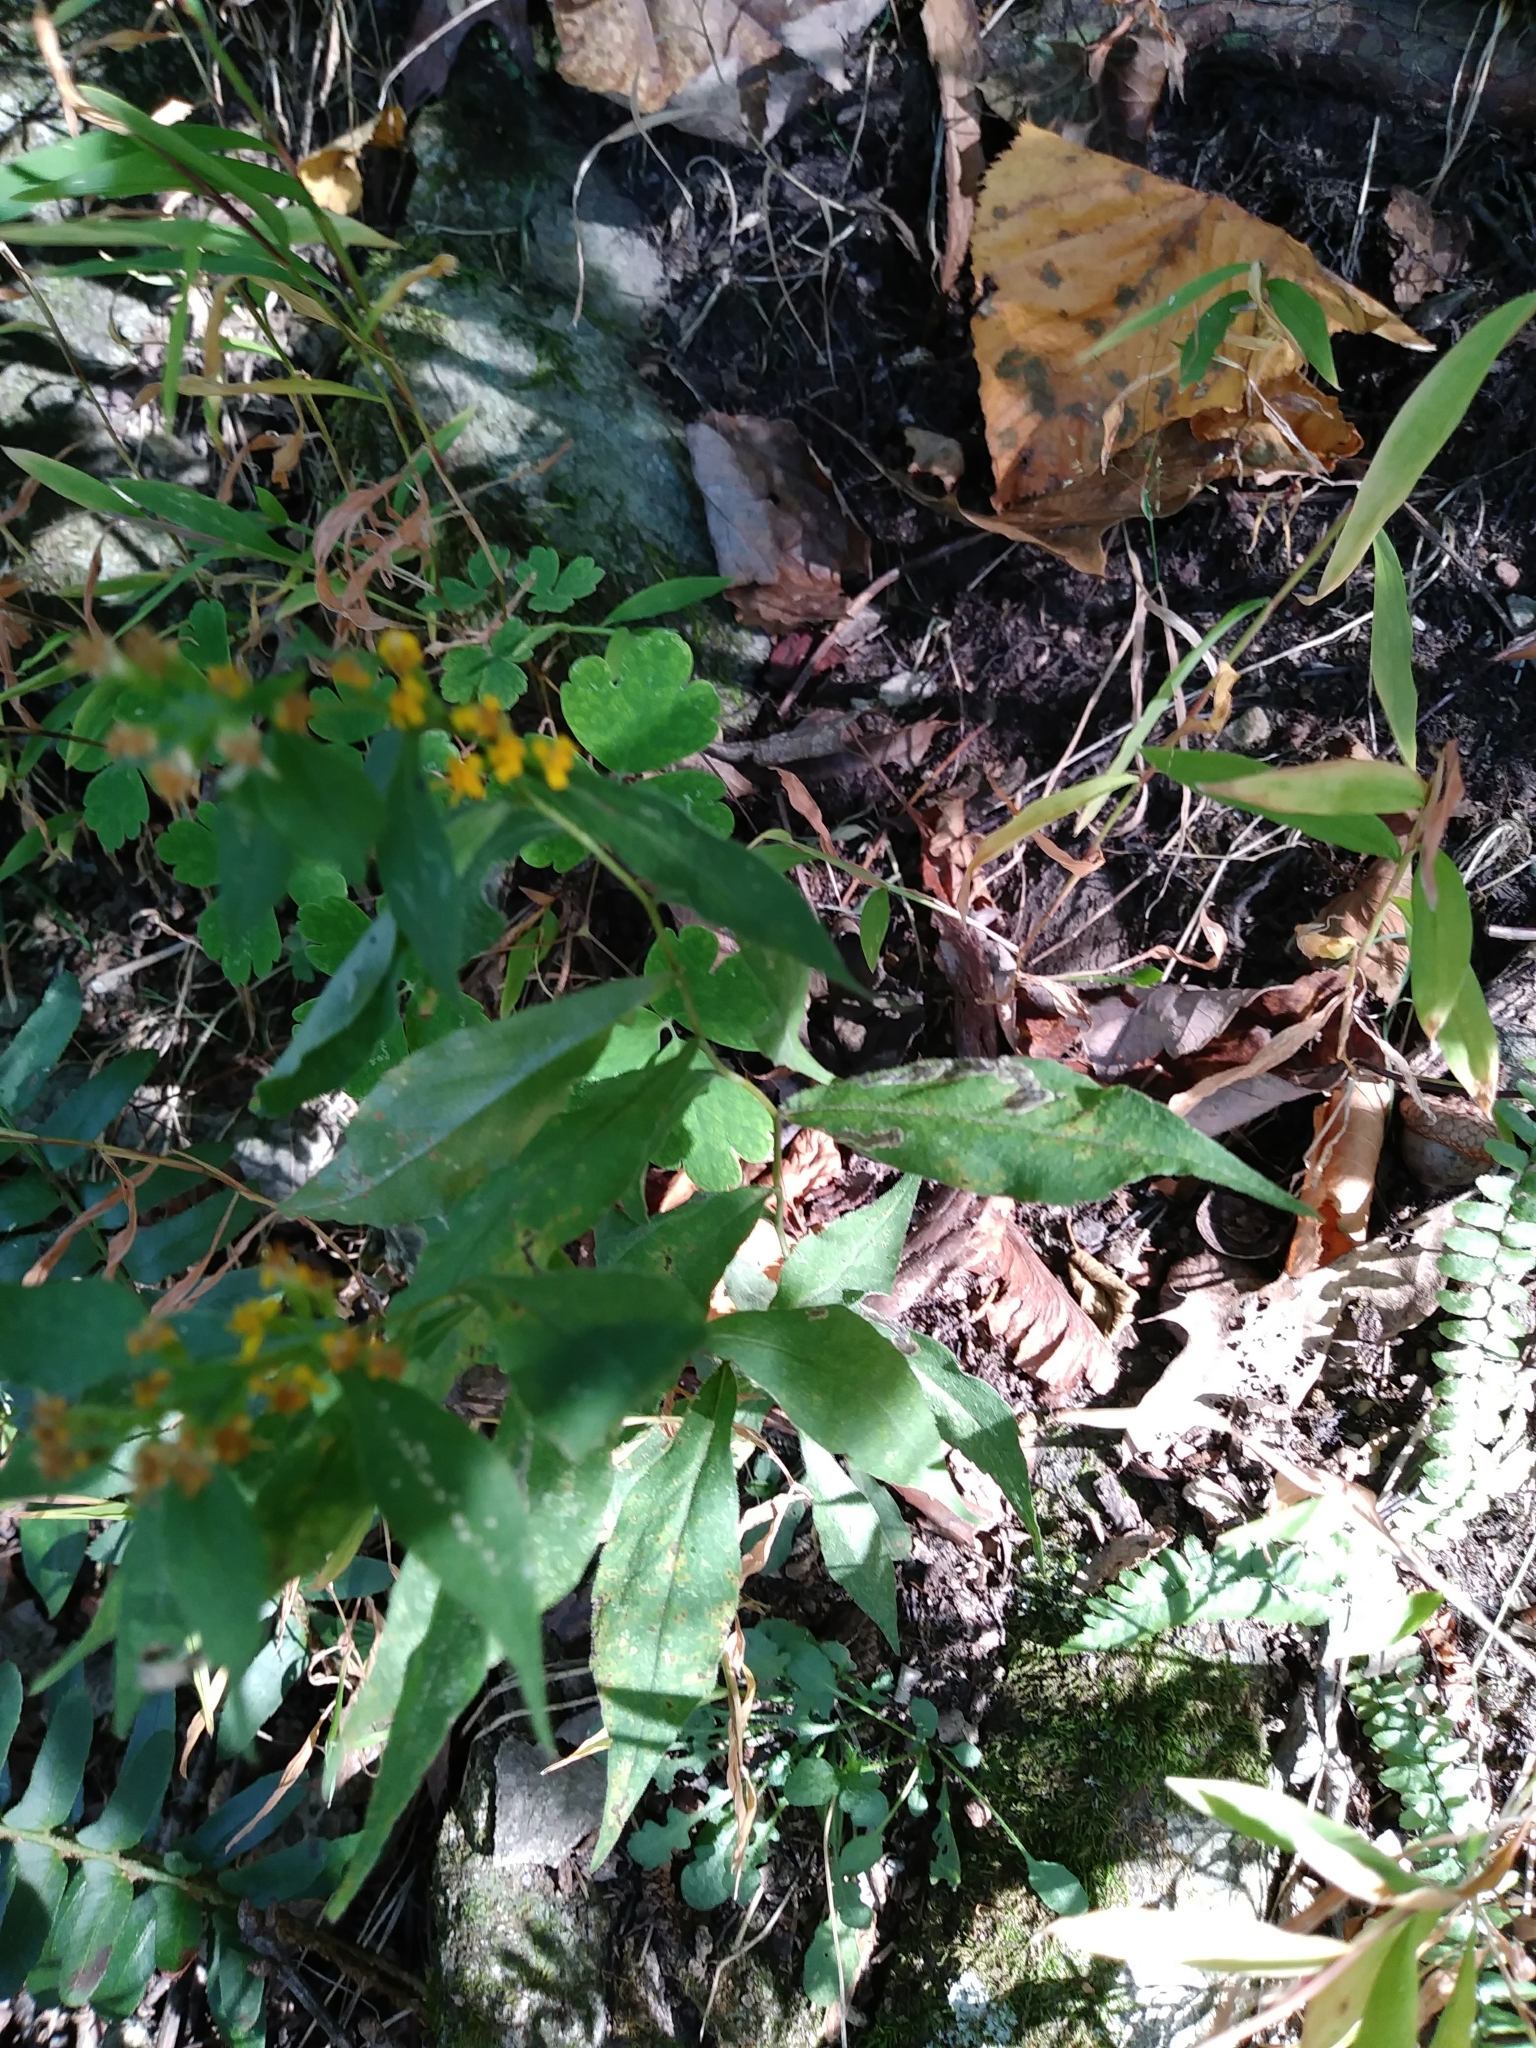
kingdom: Plantae
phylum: Tracheophyta
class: Magnoliopsida
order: Asterales
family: Asteraceae
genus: Solidago
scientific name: Solidago caesia
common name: Woodland goldenrod
